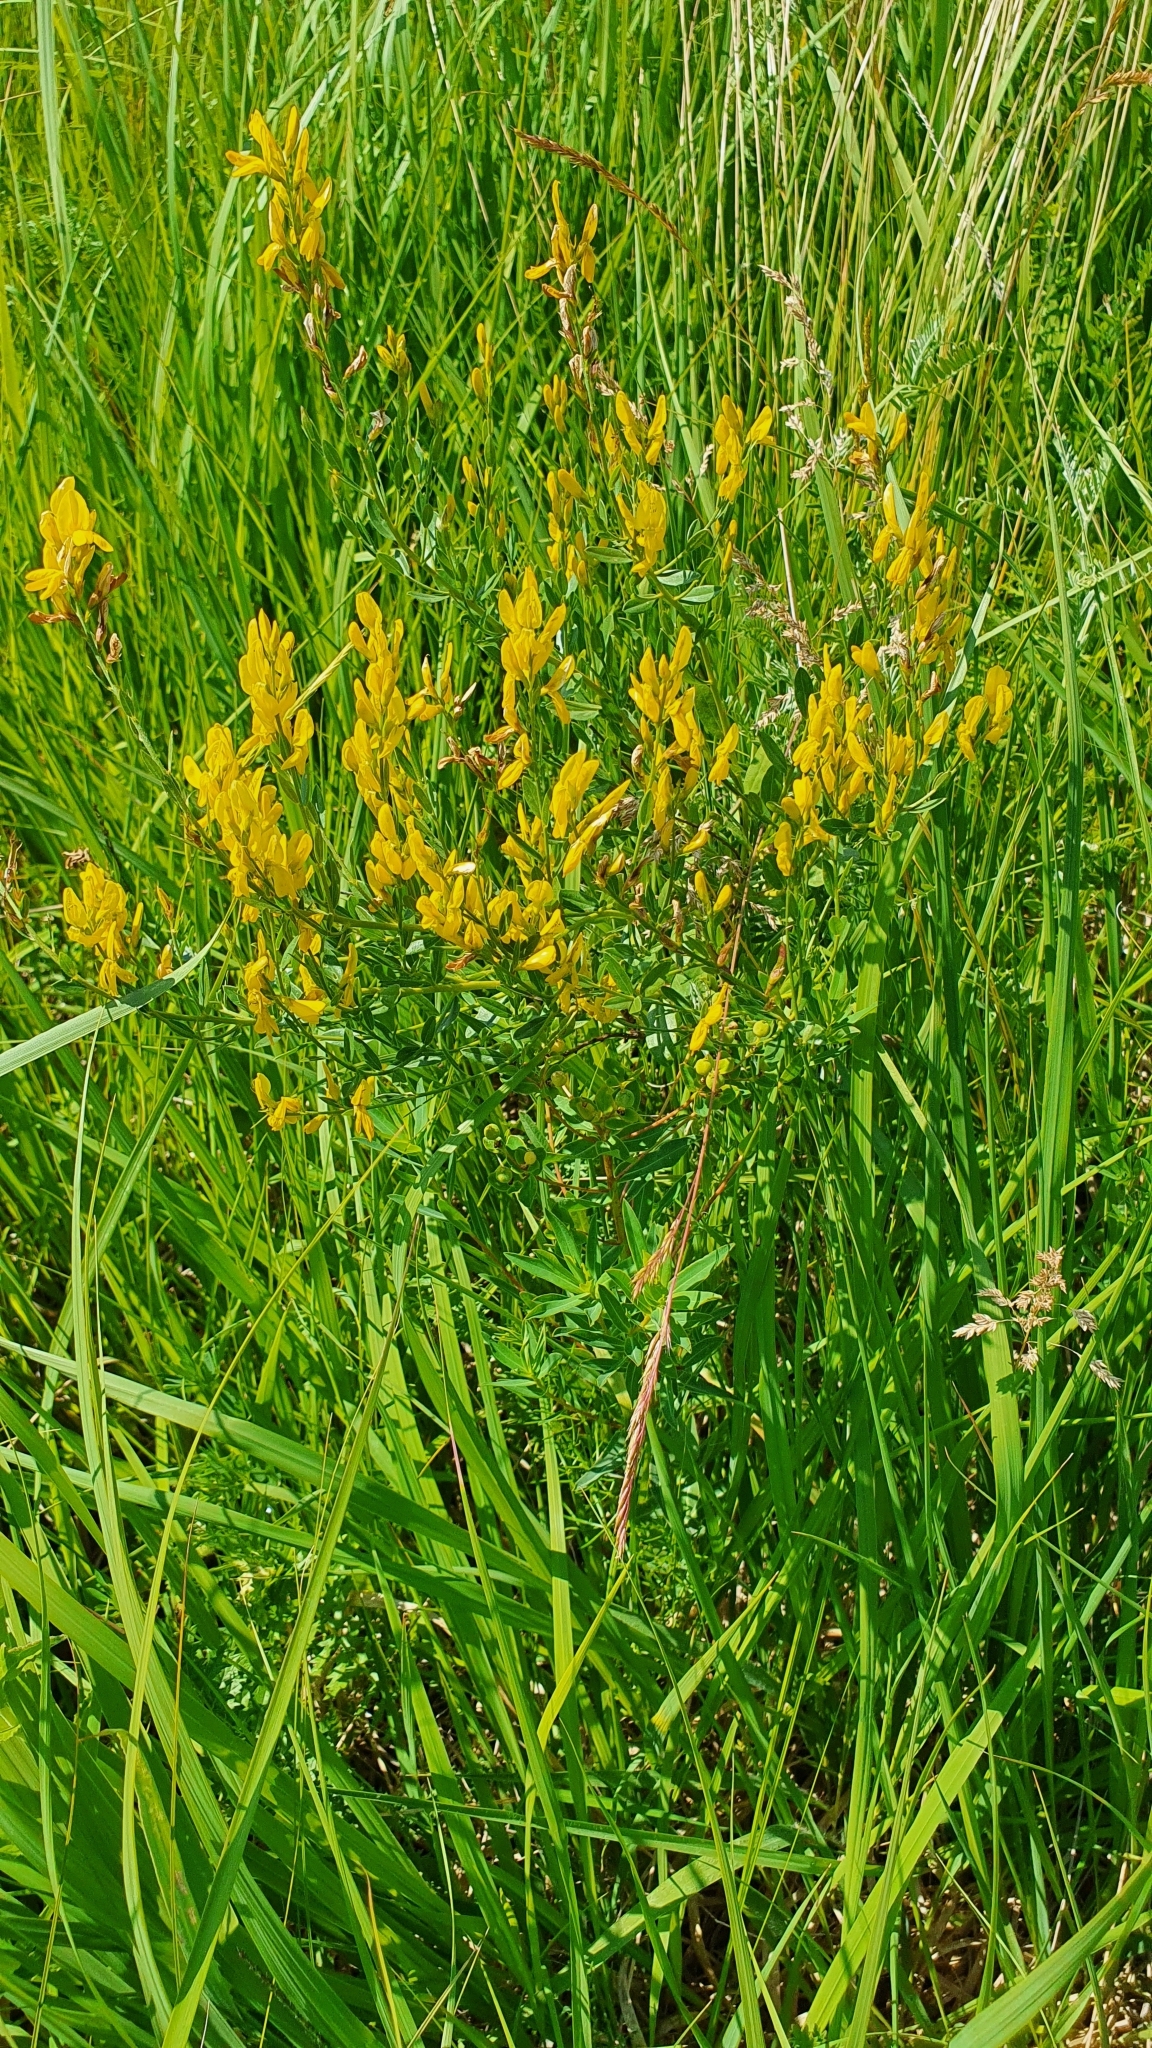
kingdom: Plantae
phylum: Tracheophyta
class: Magnoliopsida
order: Fabales
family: Fabaceae
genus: Genista
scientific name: Genista tinctoria
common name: Dyer's greenweed
